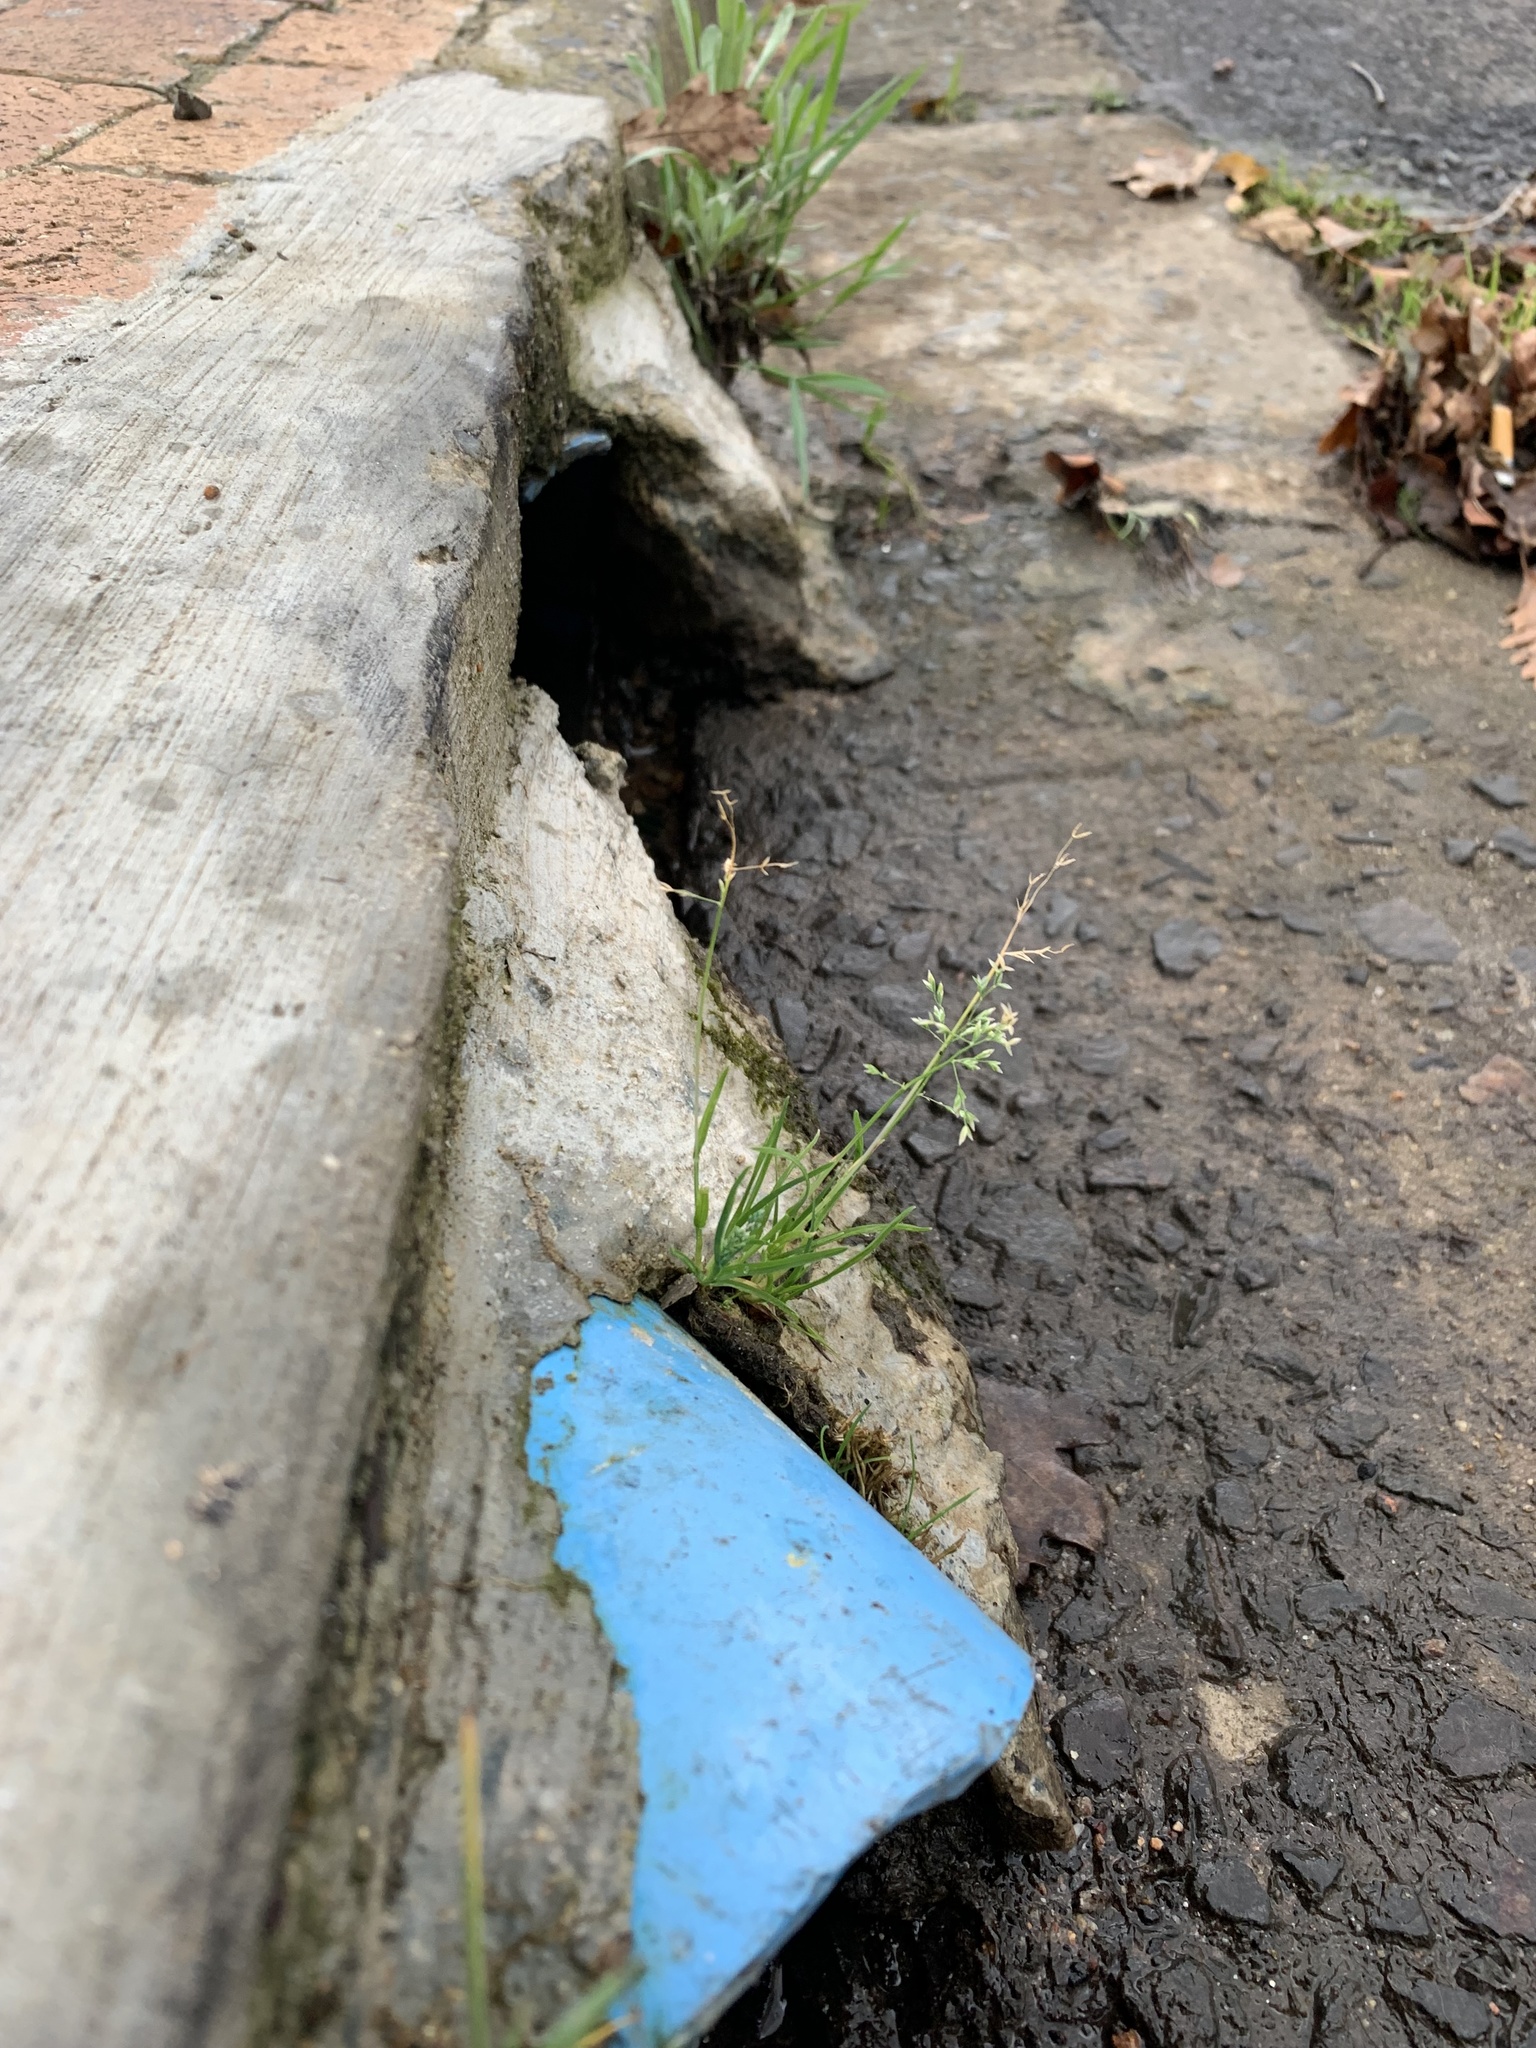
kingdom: Plantae
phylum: Tracheophyta
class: Liliopsida
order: Poales
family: Poaceae
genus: Poa
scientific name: Poa annua
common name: Annual bluegrass
